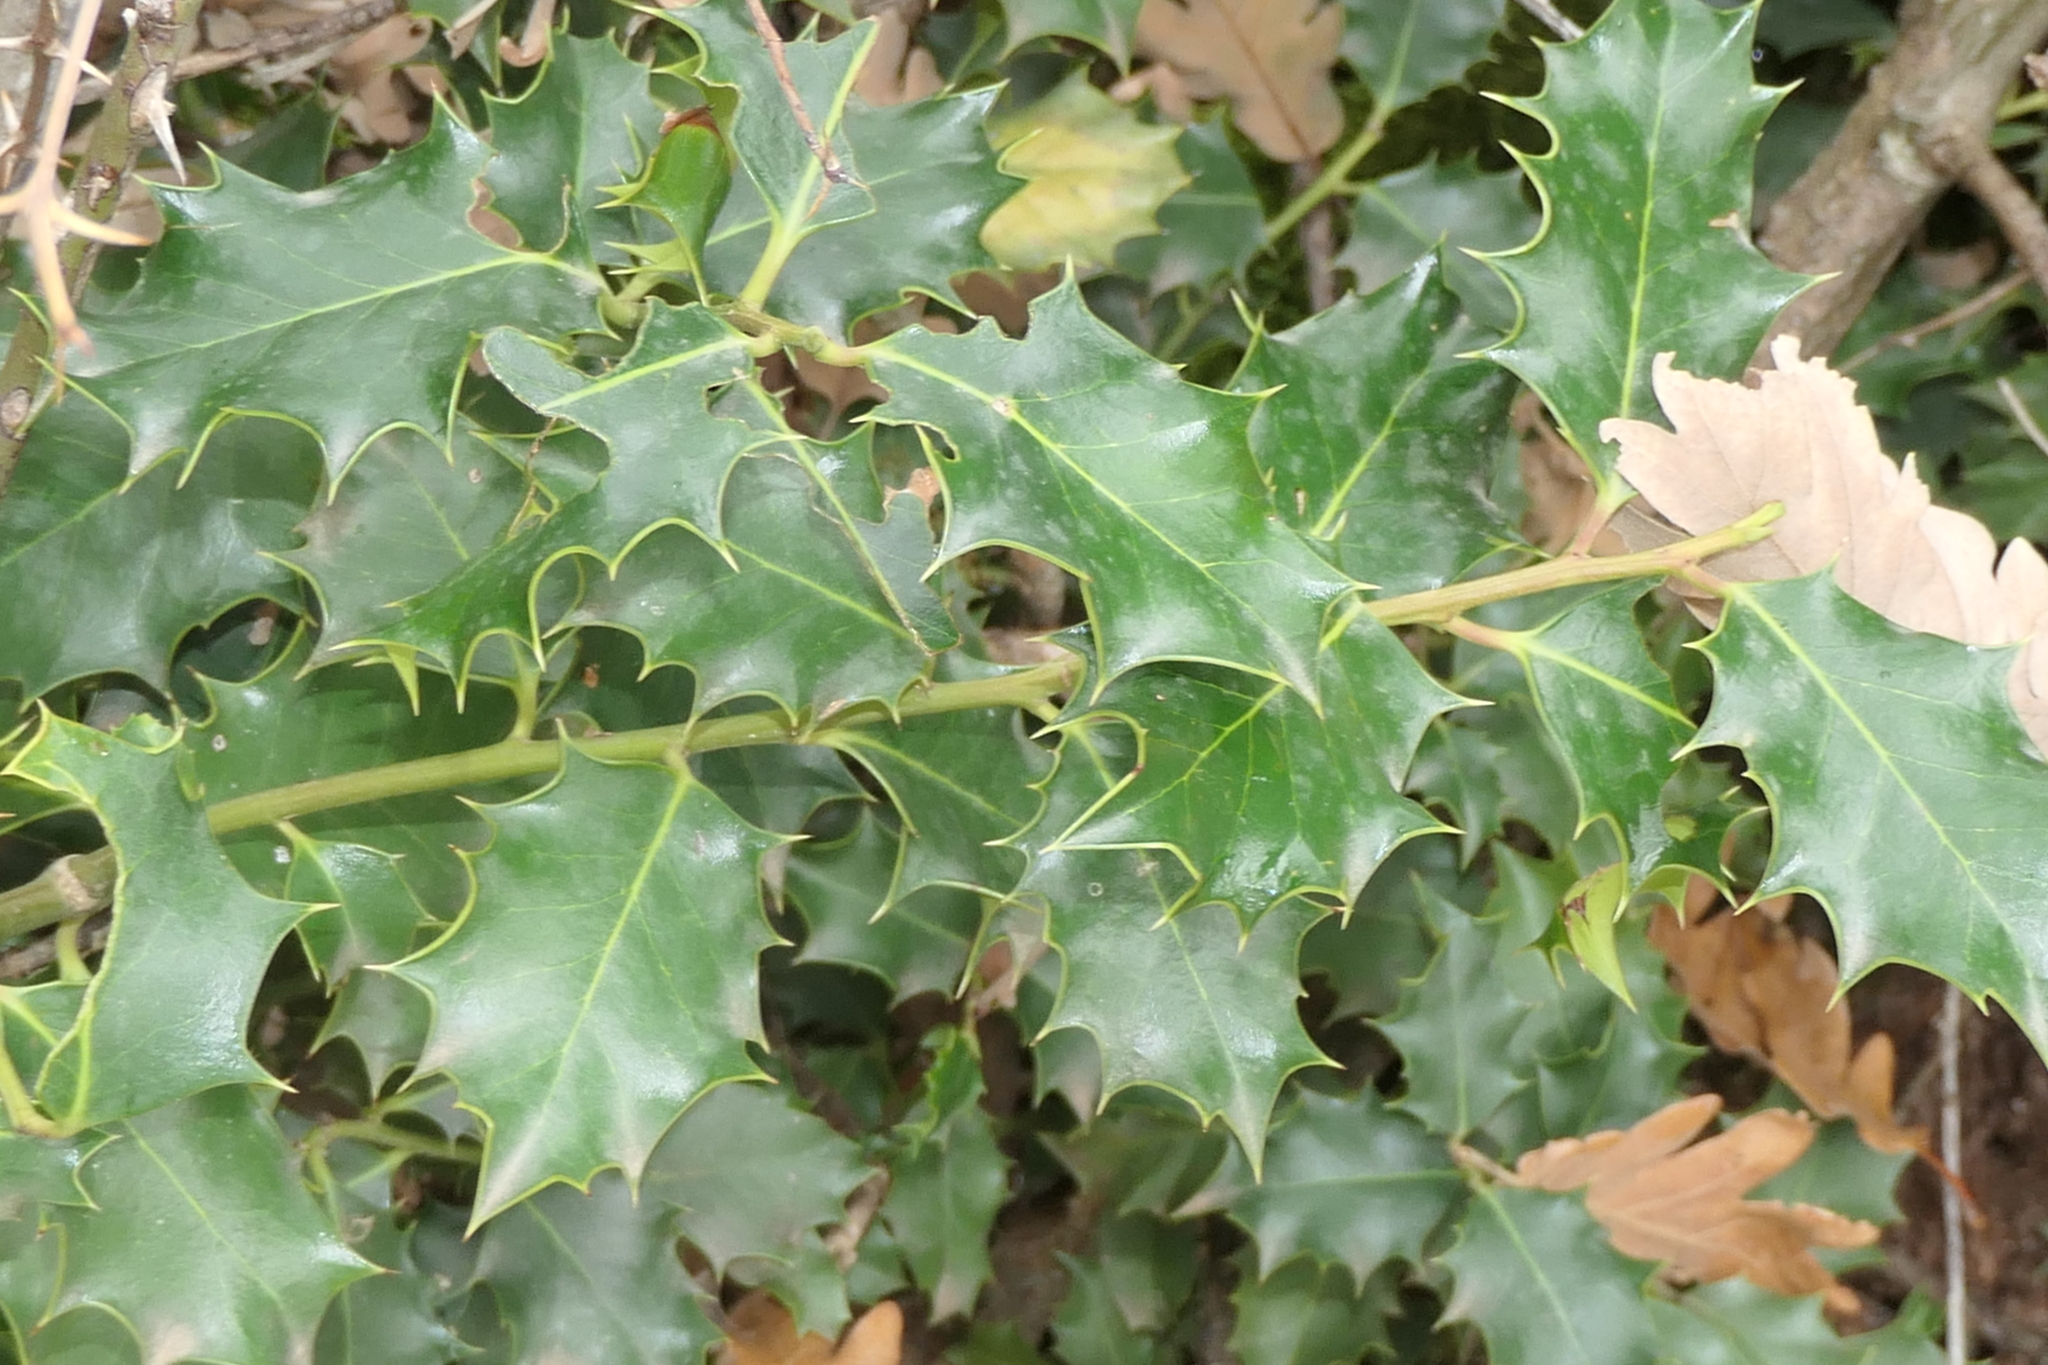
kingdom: Plantae
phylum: Tracheophyta
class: Magnoliopsida
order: Aquifoliales
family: Aquifoliaceae
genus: Ilex
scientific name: Ilex aquifolium
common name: English holly
